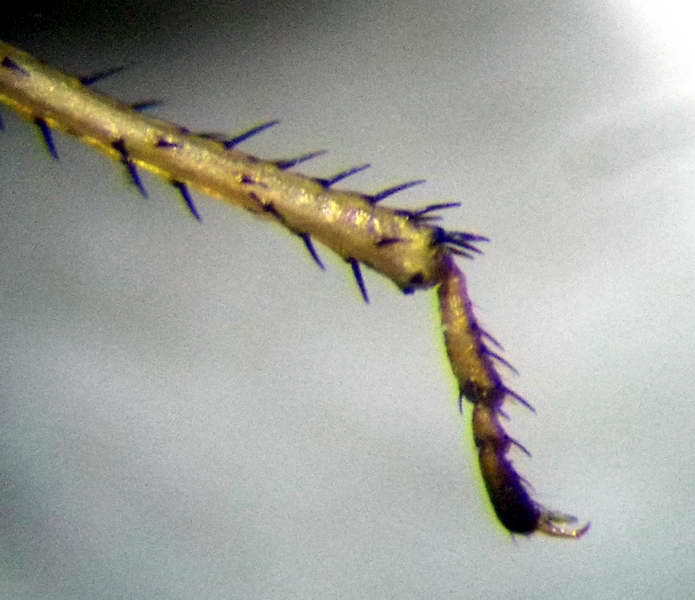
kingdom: Animalia
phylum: Arthropoda
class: Insecta
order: Hemiptera
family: Pentatomidae
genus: Menaccarus
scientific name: Menaccarus arenicola
